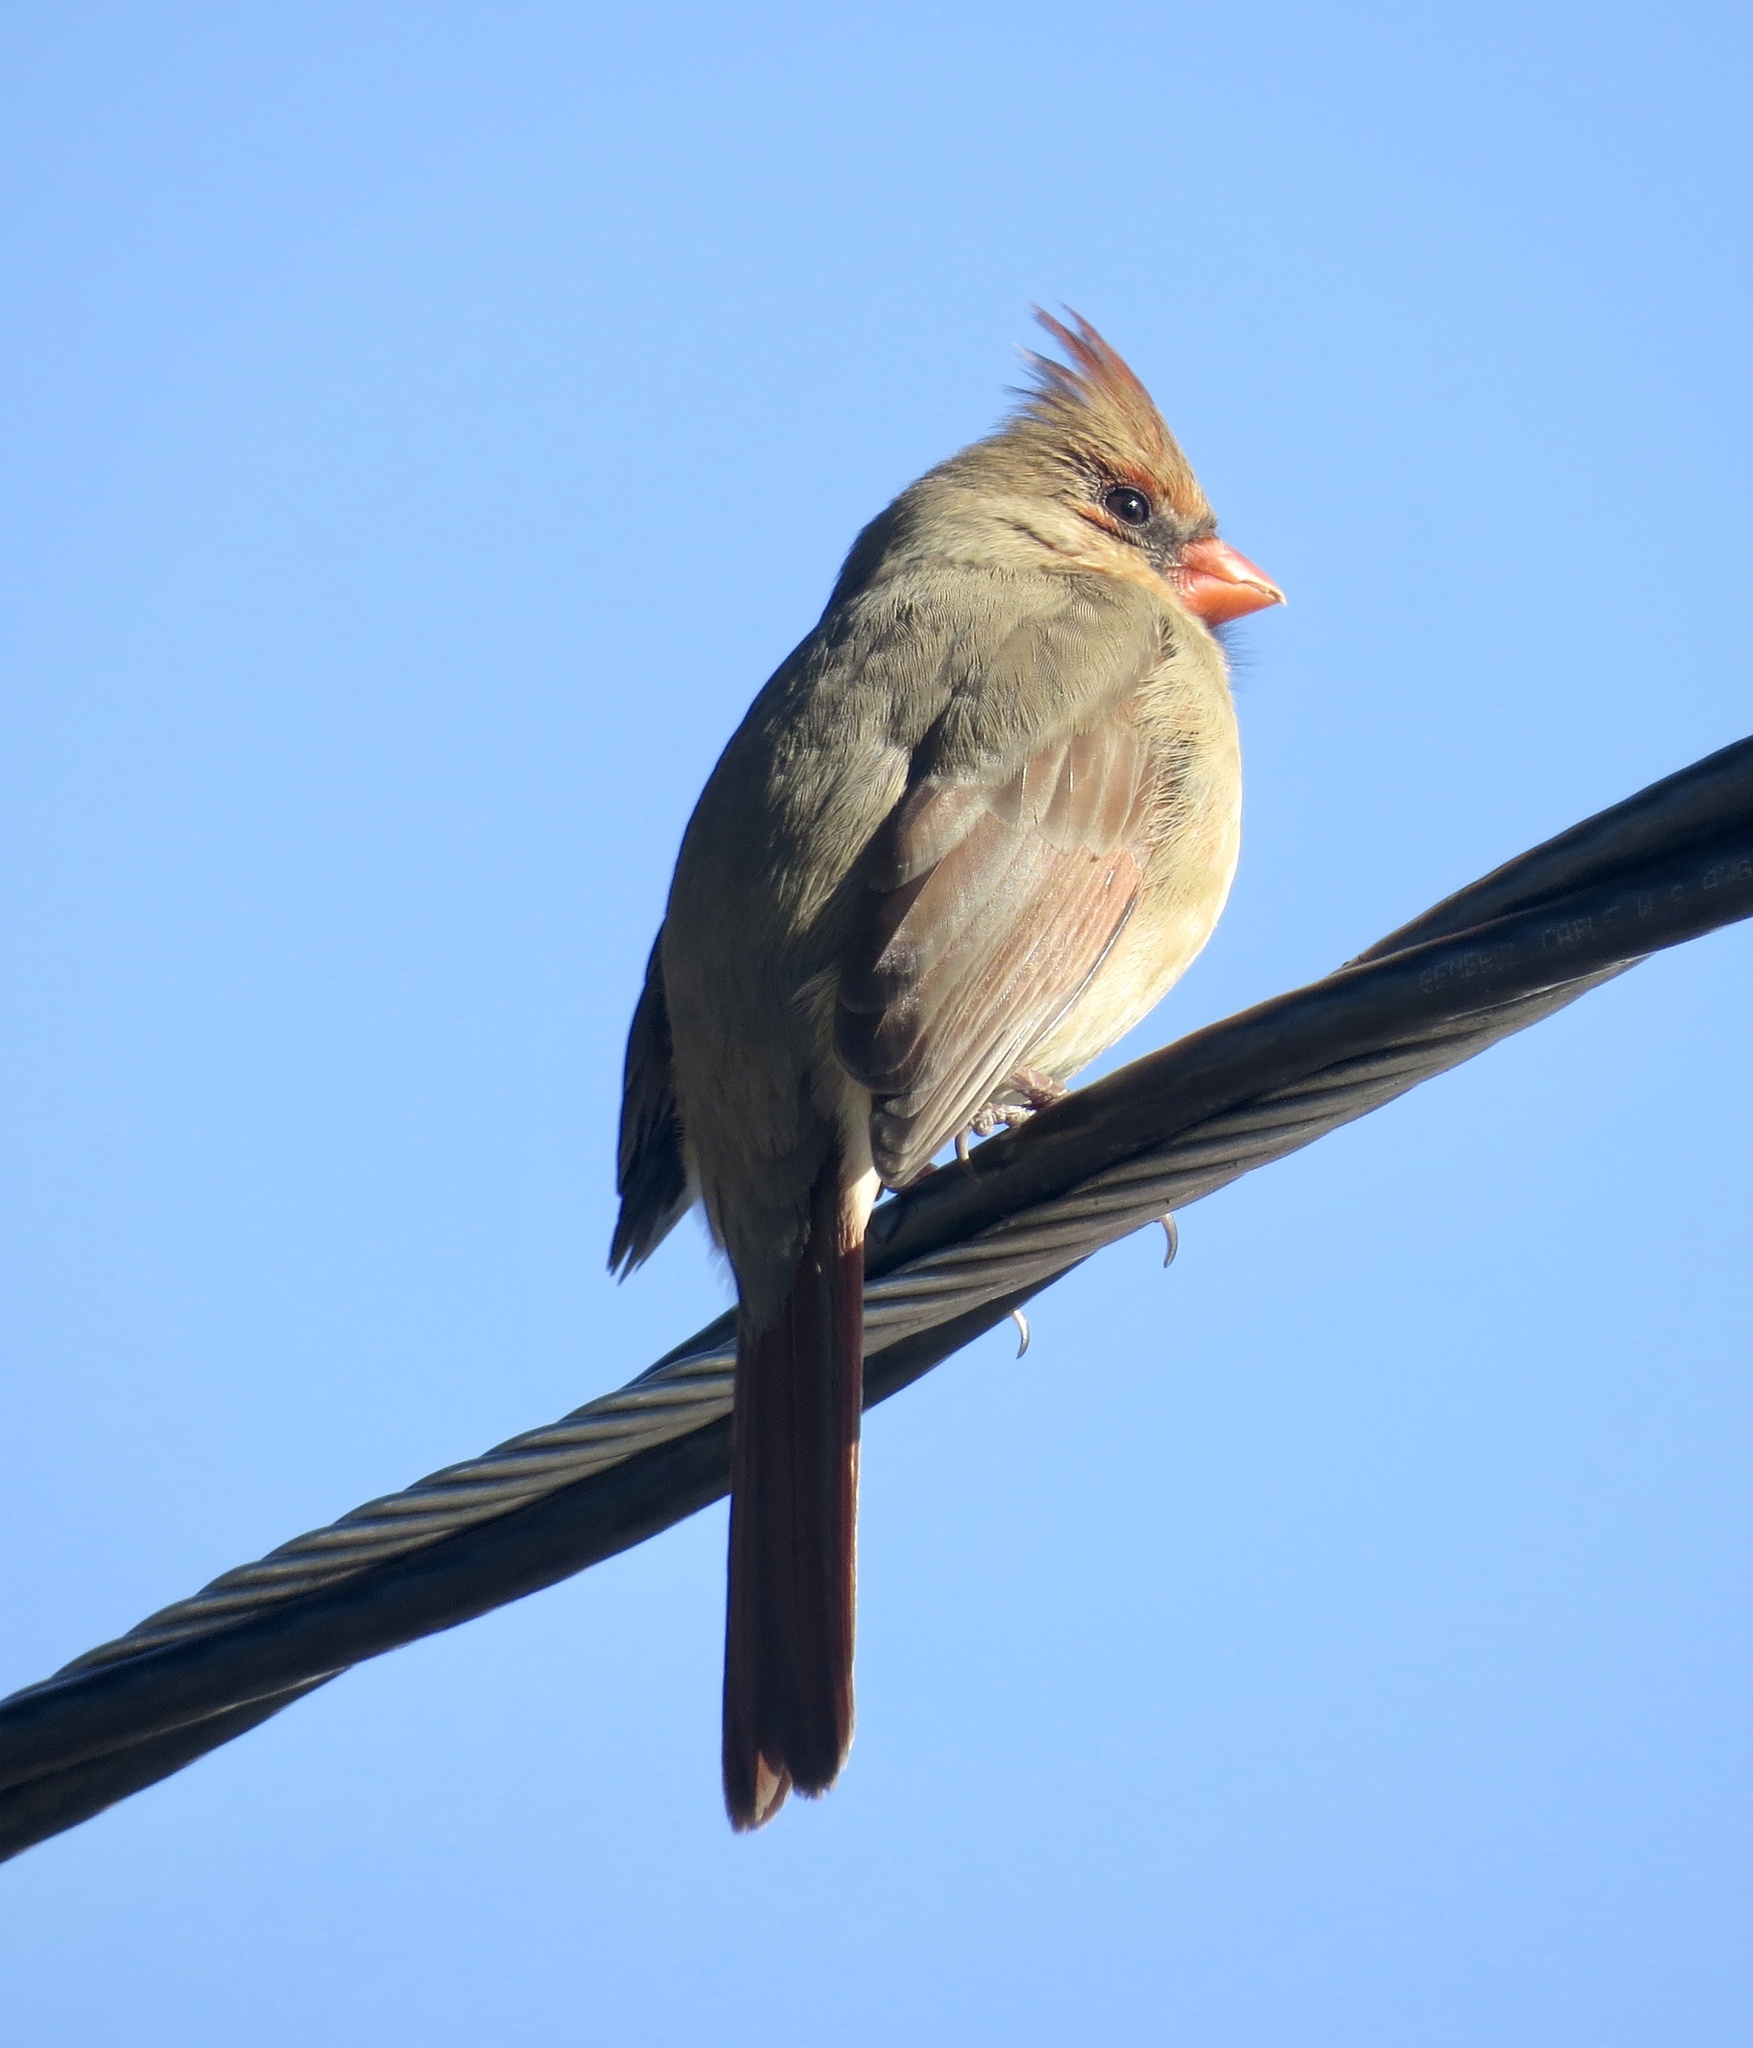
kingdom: Animalia
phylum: Chordata
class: Aves
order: Passeriformes
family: Cardinalidae
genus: Cardinalis
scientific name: Cardinalis cardinalis
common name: Northern cardinal
